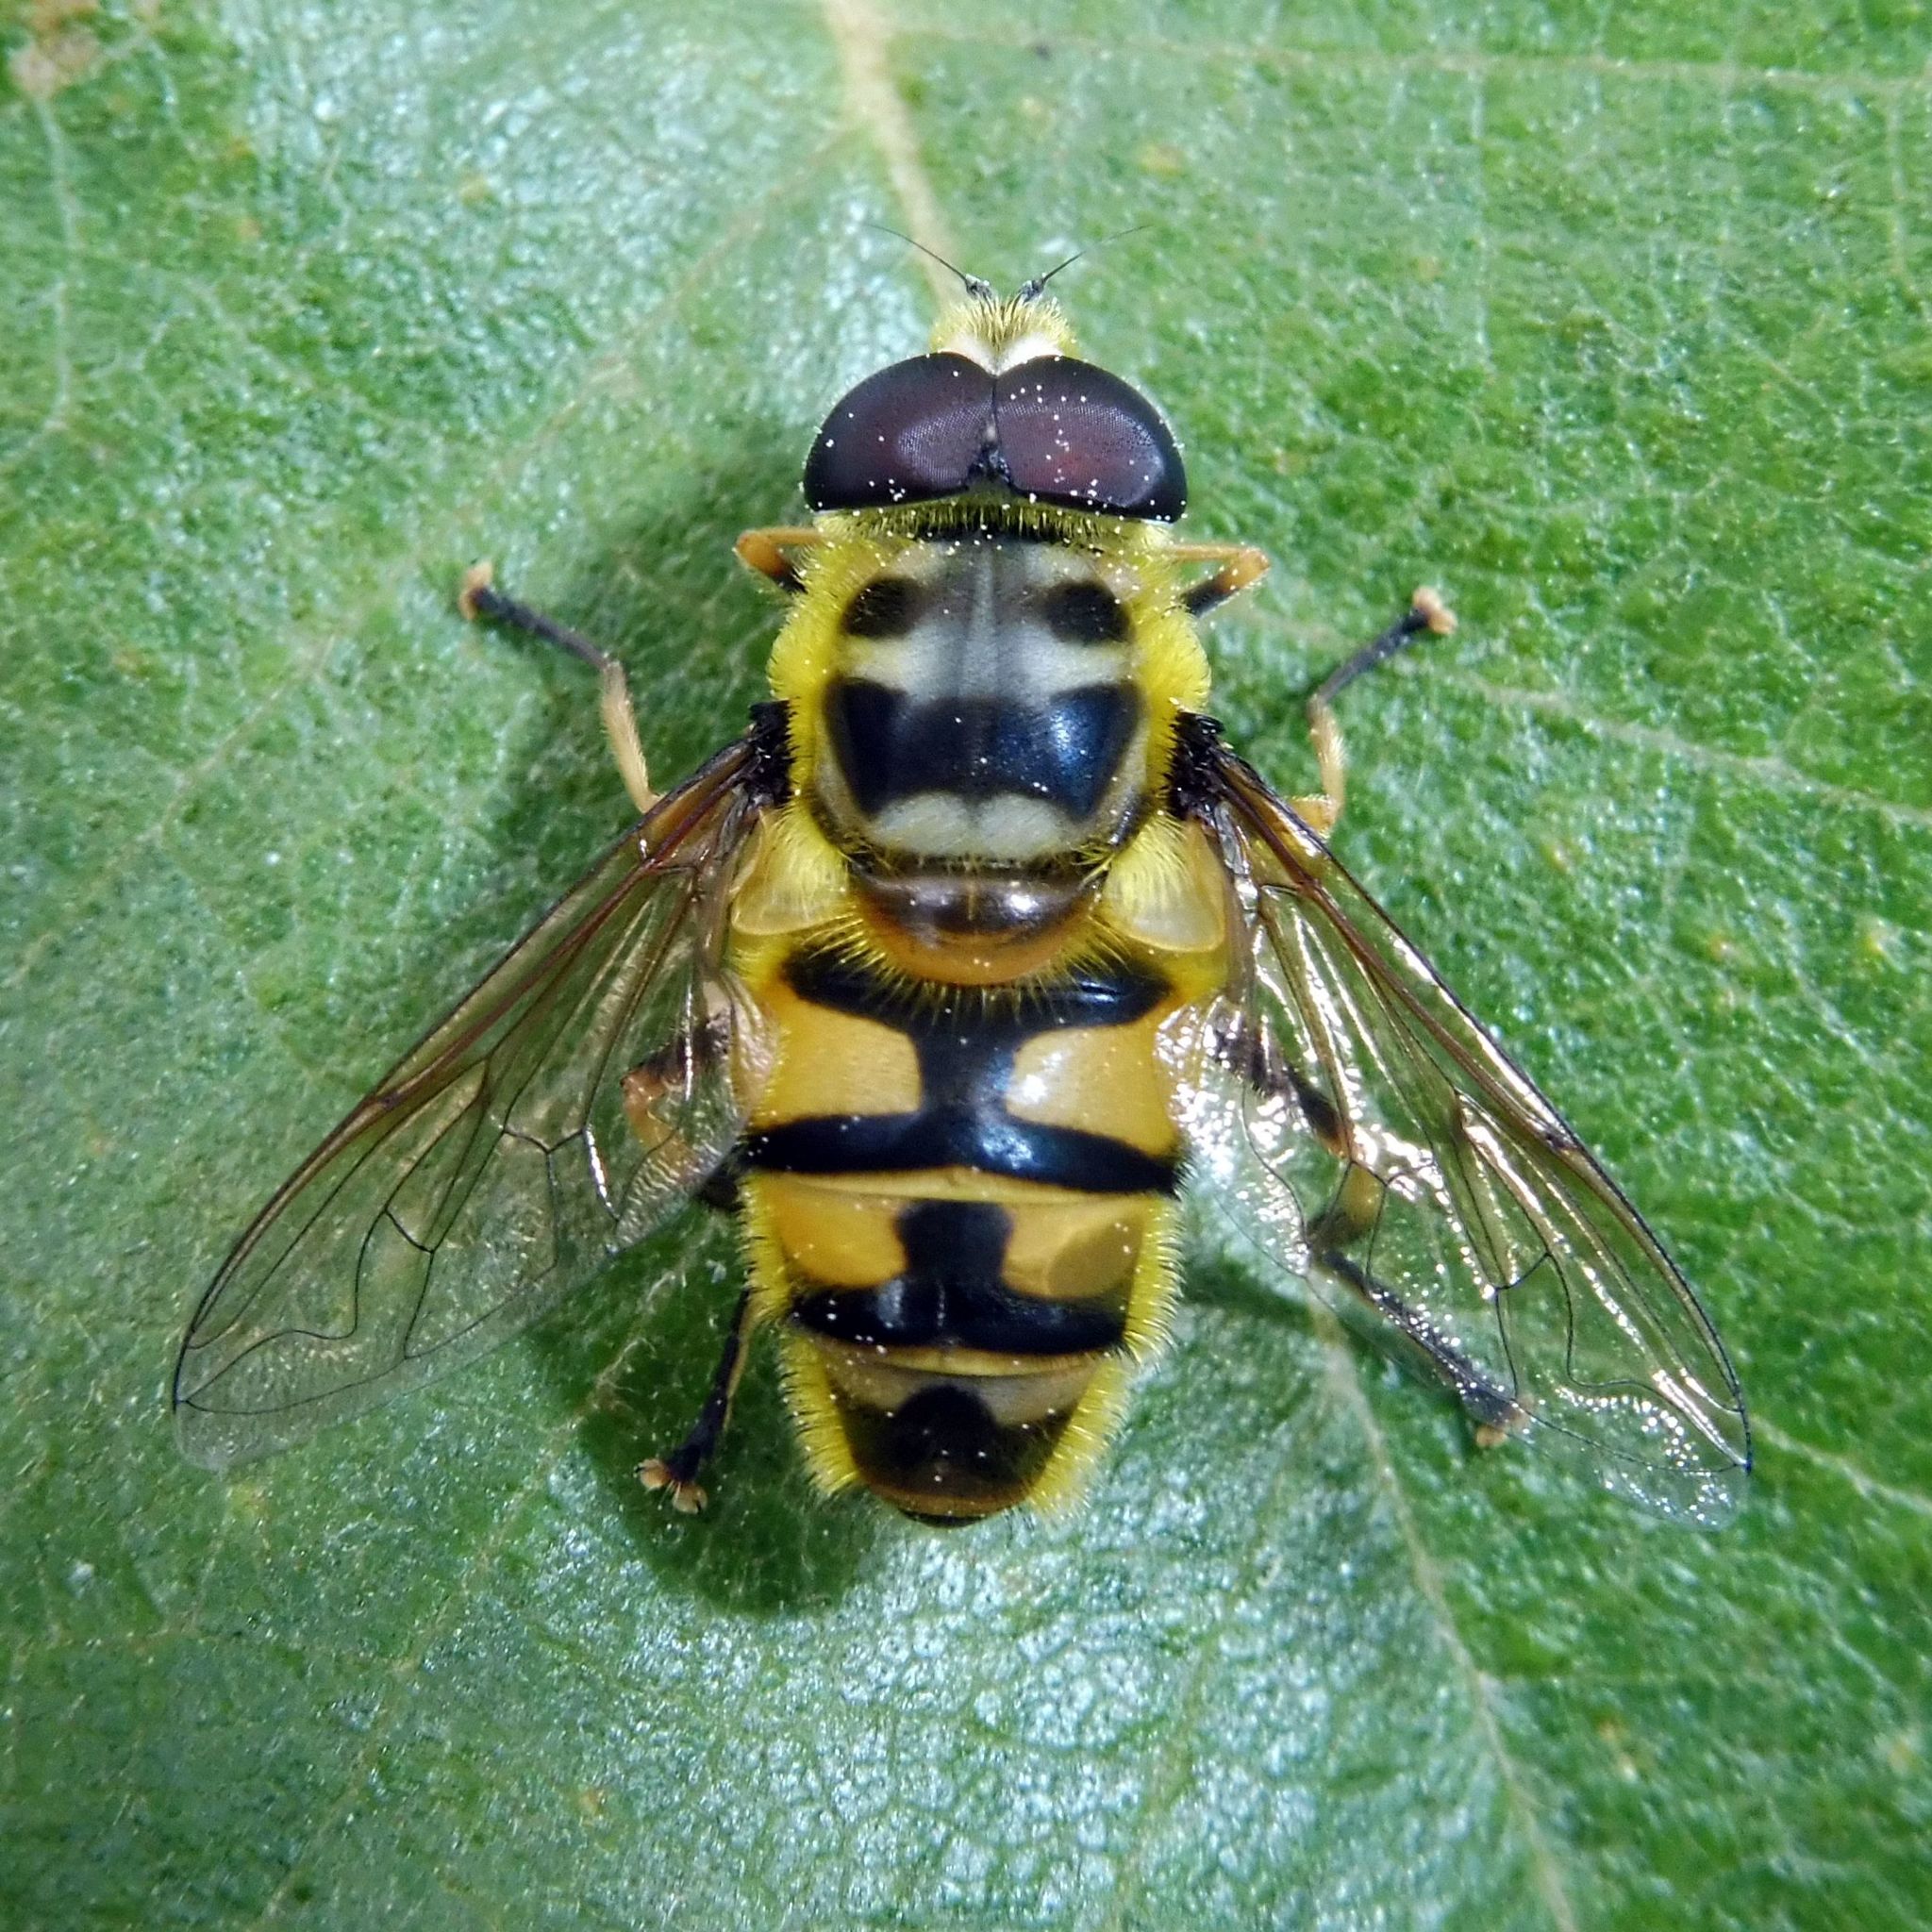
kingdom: Animalia
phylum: Arthropoda
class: Insecta
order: Diptera
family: Syrphidae
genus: Myathropa
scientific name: Myathropa florea
